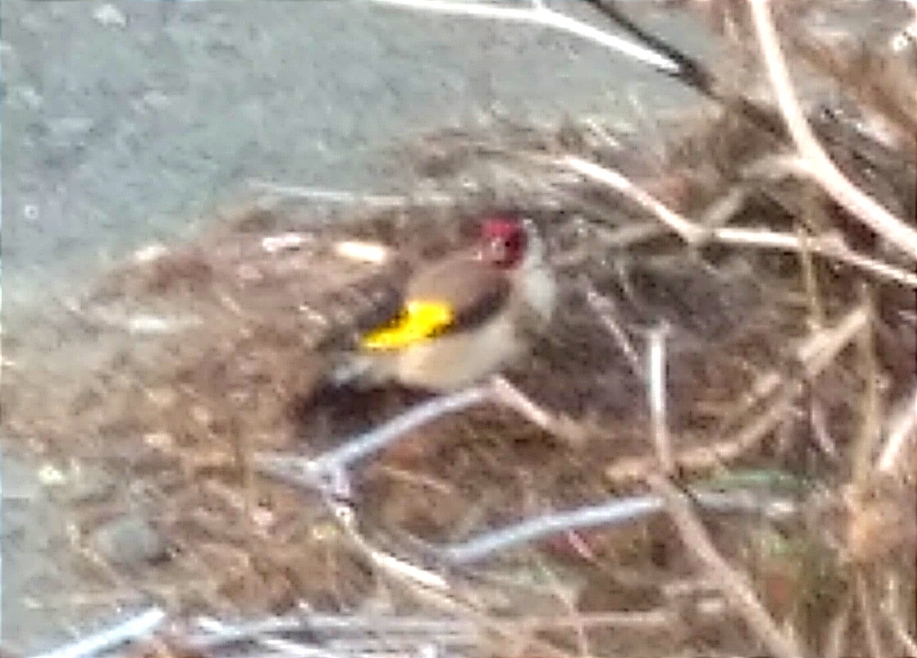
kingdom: Animalia
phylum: Chordata
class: Aves
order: Passeriformes
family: Fringillidae
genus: Carduelis
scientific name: Carduelis carduelis
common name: European goldfinch
